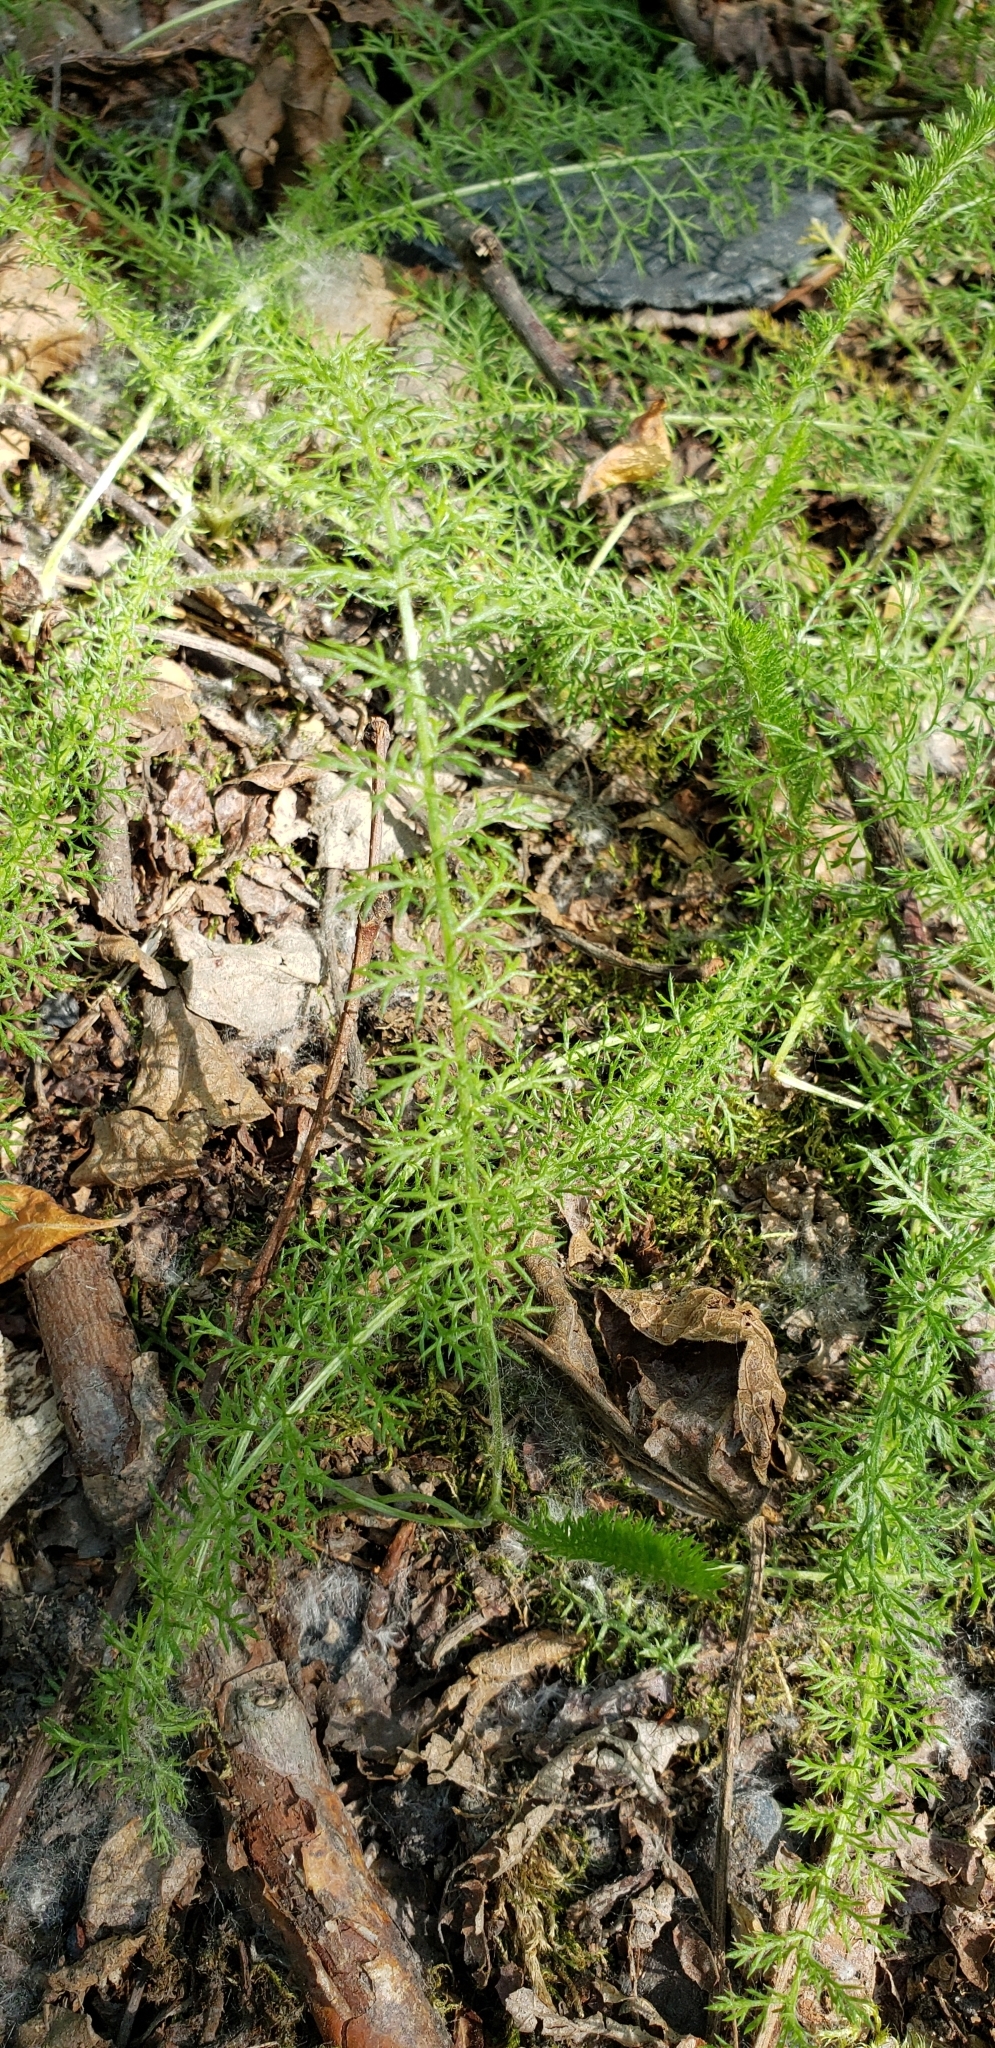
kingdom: Plantae
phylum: Tracheophyta
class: Magnoliopsida
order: Asterales
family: Asteraceae
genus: Achillea
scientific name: Achillea millefolium
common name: Yarrow
